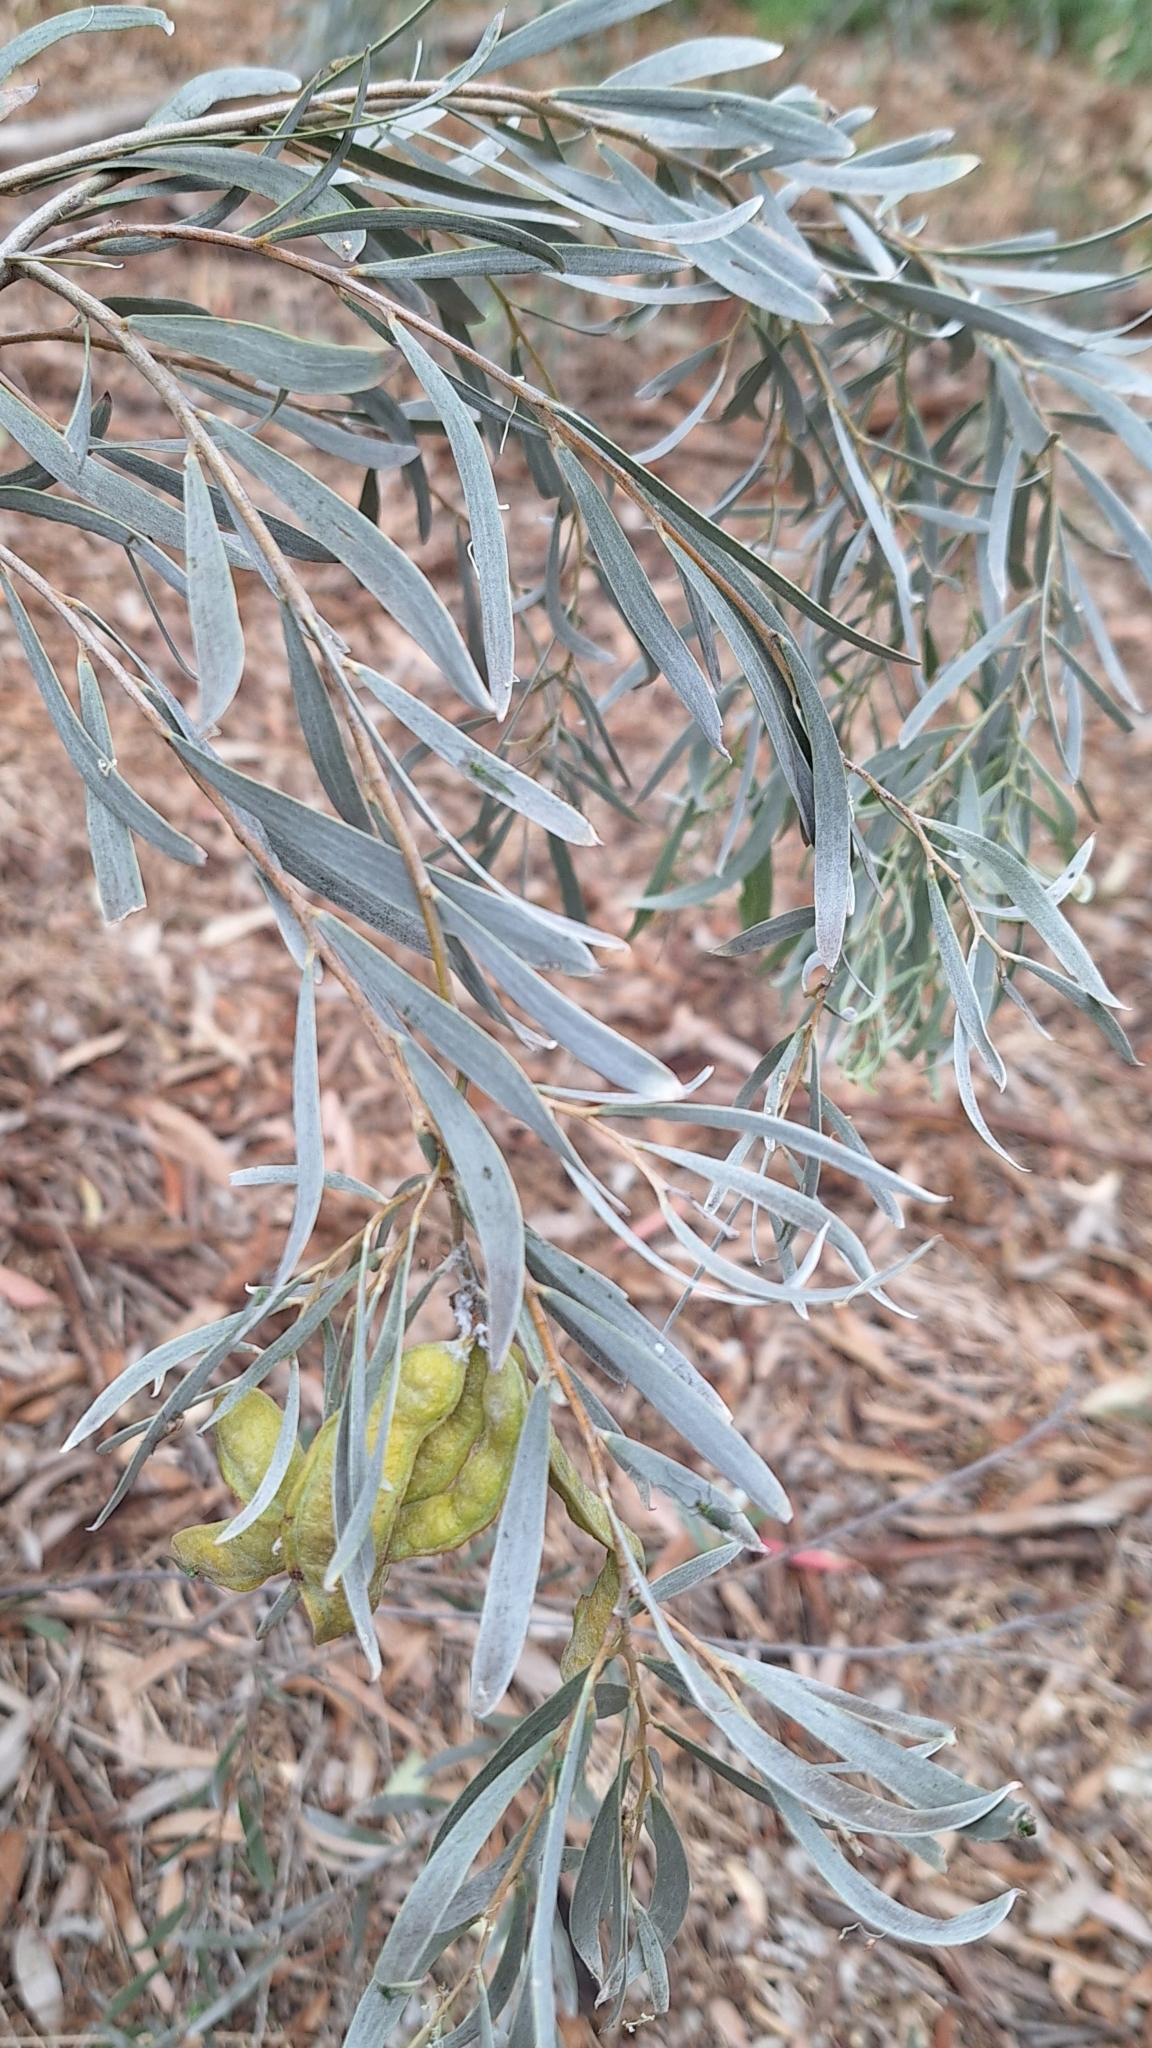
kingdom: Plantae
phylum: Tracheophyta
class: Magnoliopsida
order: Fabales
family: Fabaceae
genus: Acacia
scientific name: Acacia pendula
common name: Weeping myall
